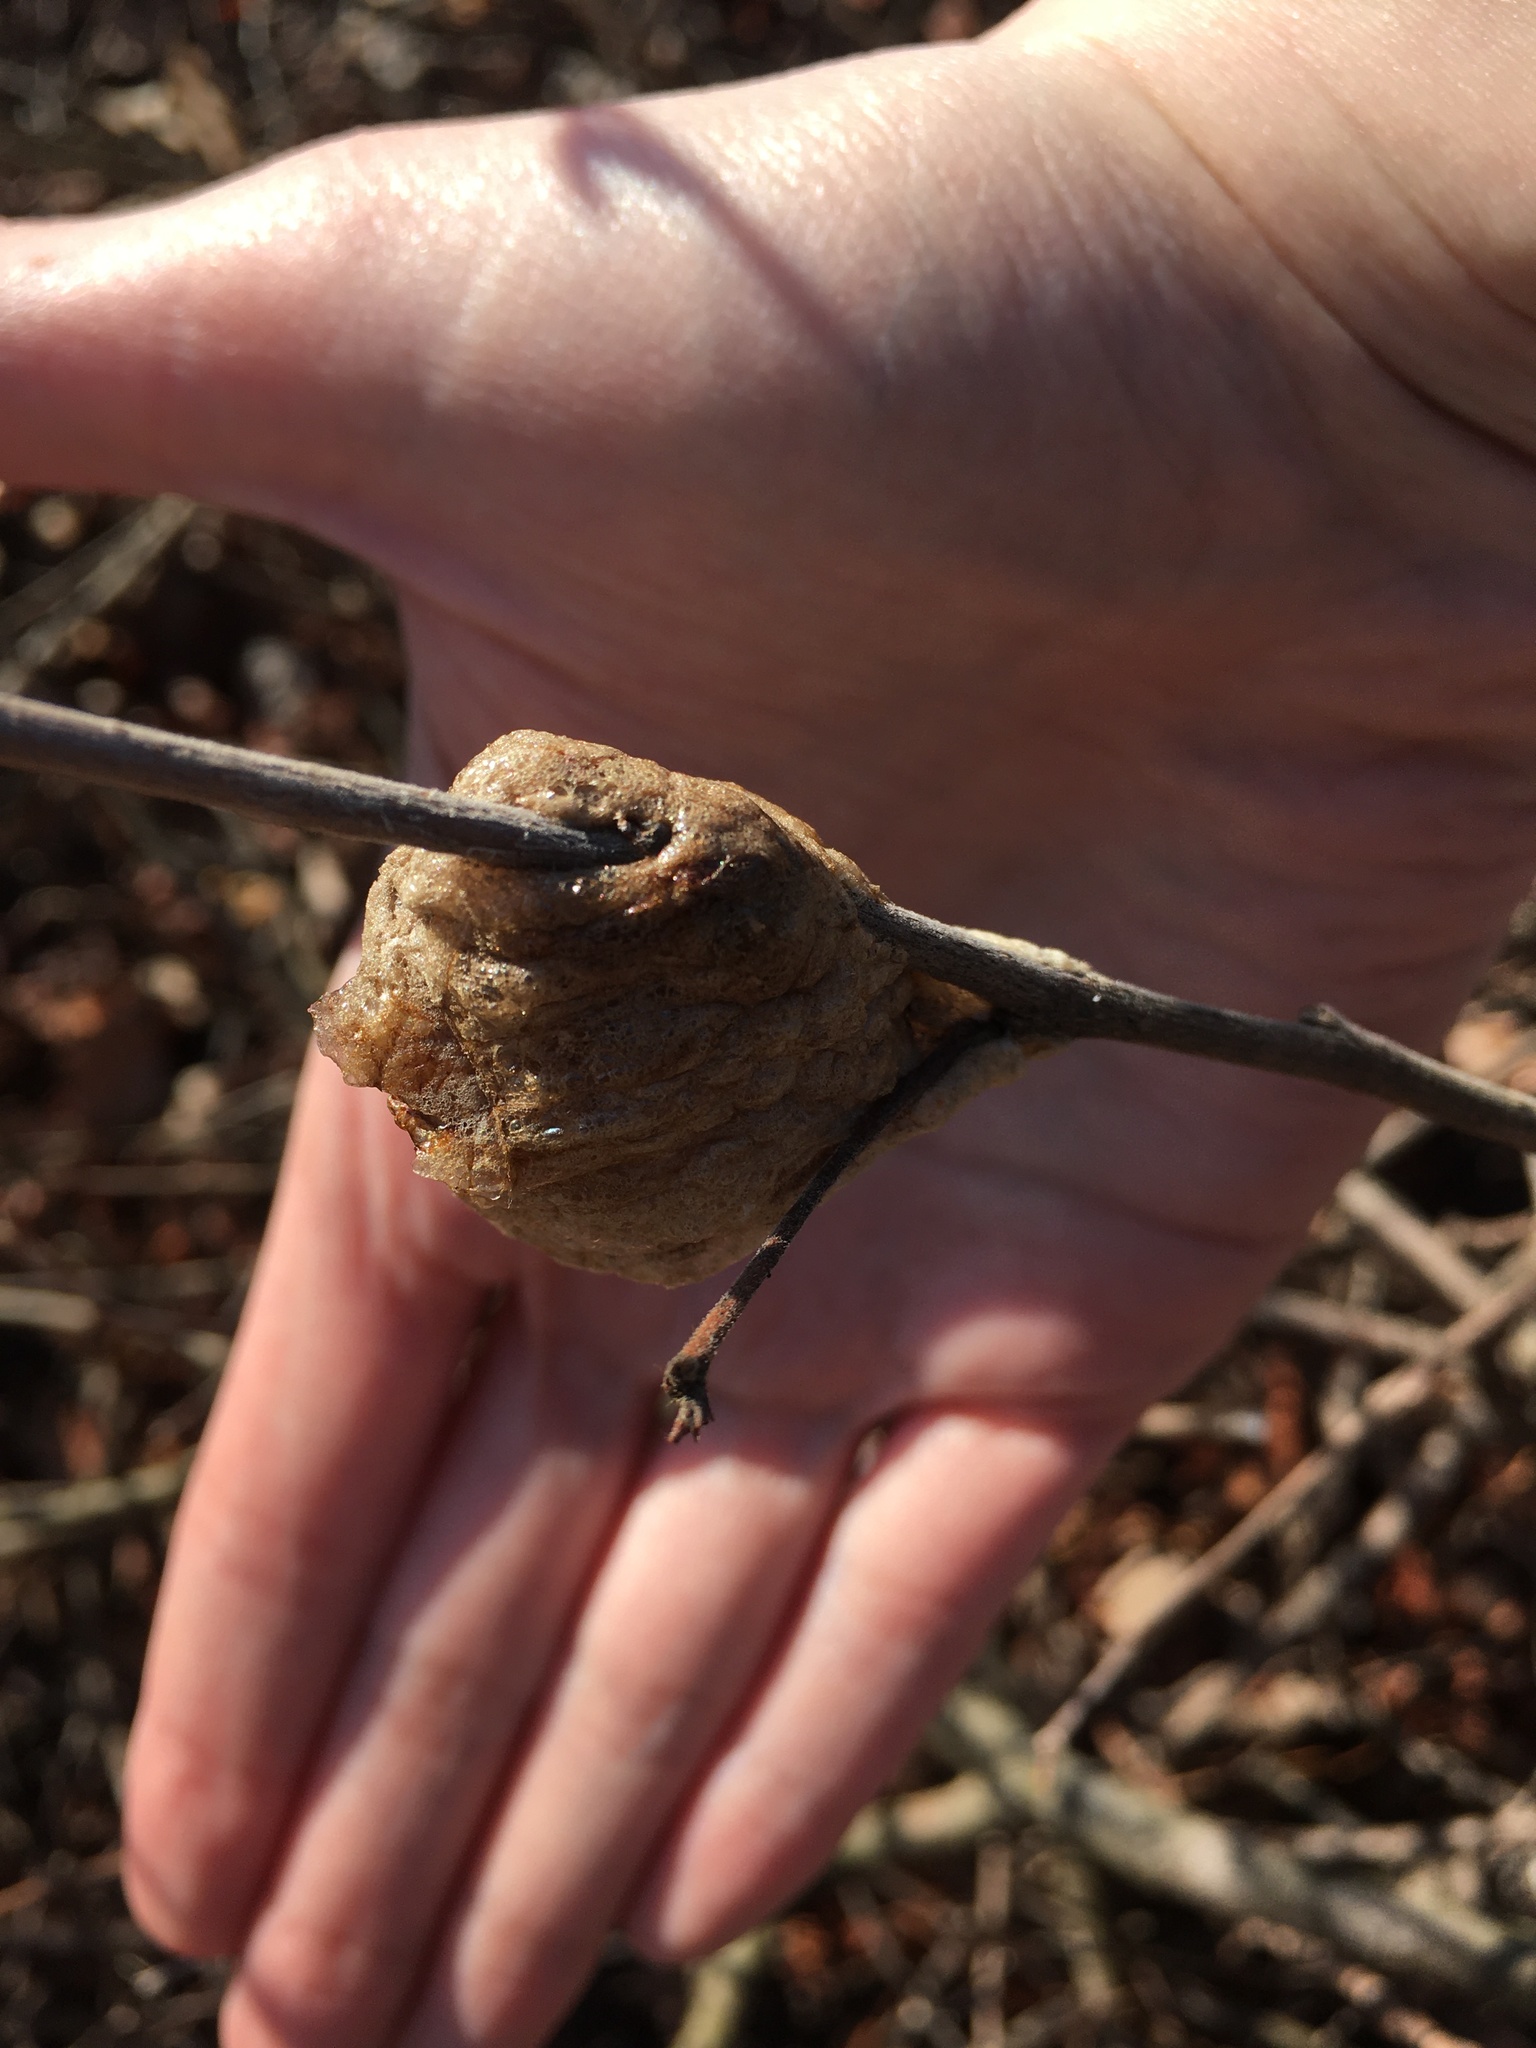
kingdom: Animalia
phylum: Arthropoda
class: Insecta
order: Mantodea
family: Mantidae
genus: Tenodera
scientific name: Tenodera sinensis
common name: Chinese mantis
